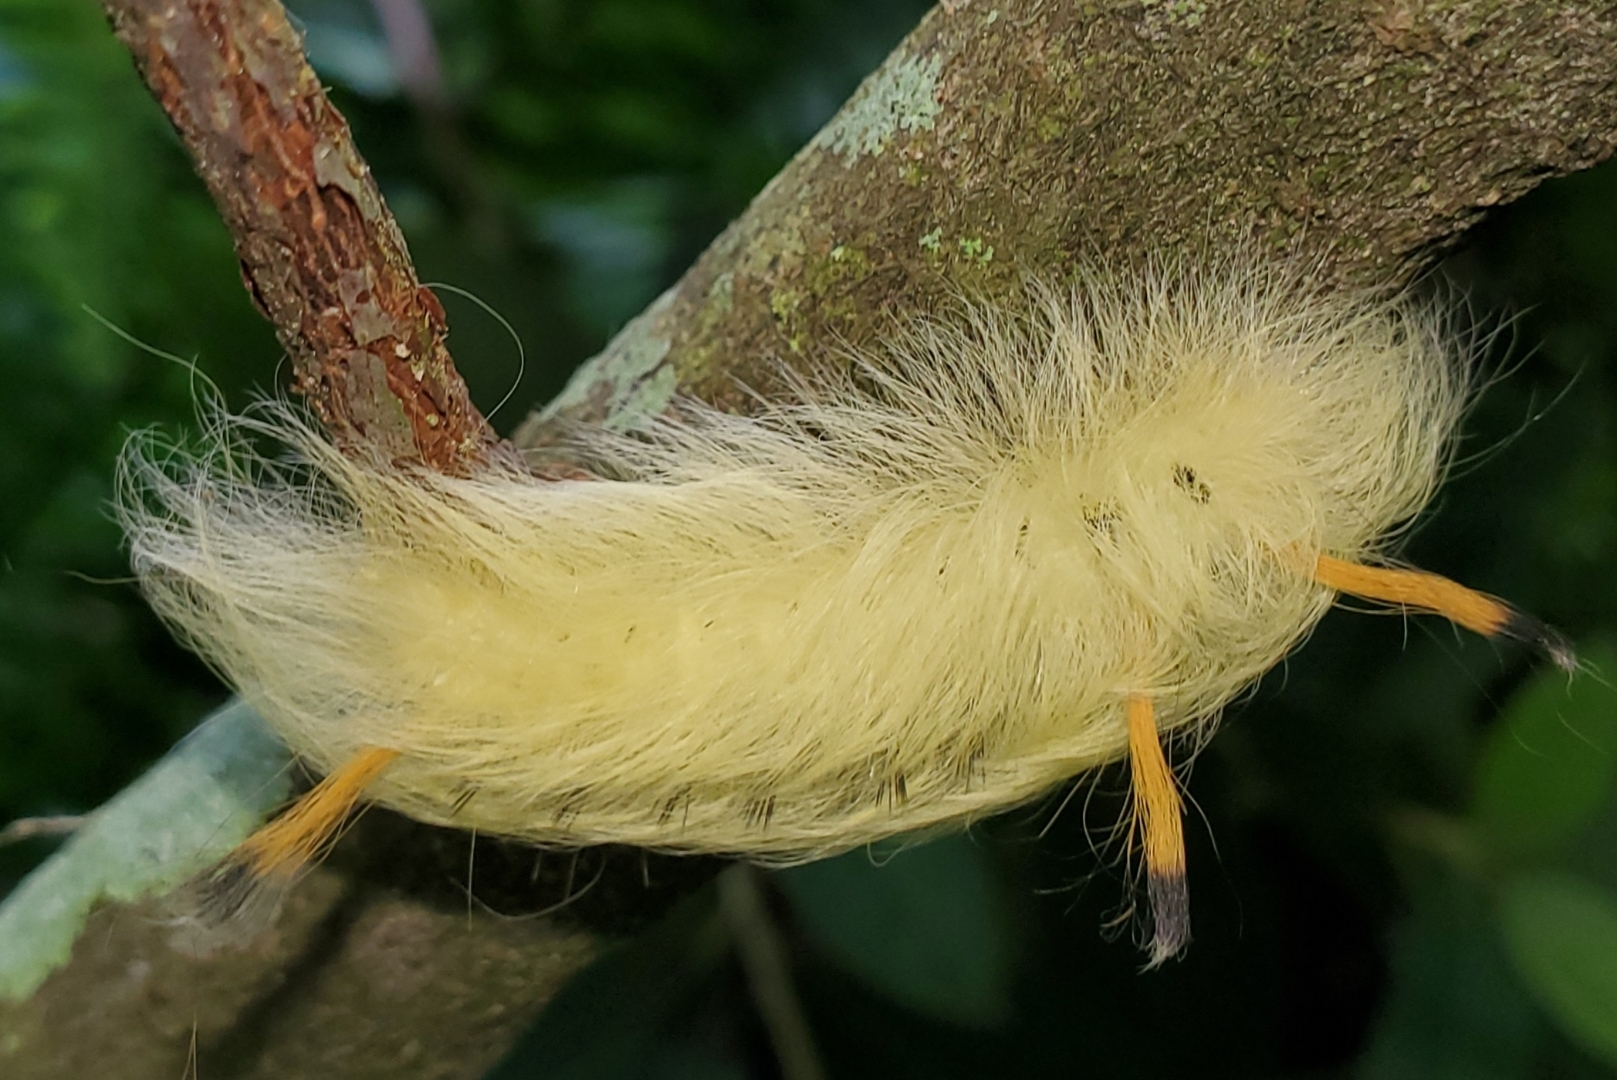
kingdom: Animalia
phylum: Arthropoda
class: Insecta
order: Lepidoptera
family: Apatelodidae
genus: Hygrochroa
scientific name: Hygrochroa Apatelodes torrefacta
